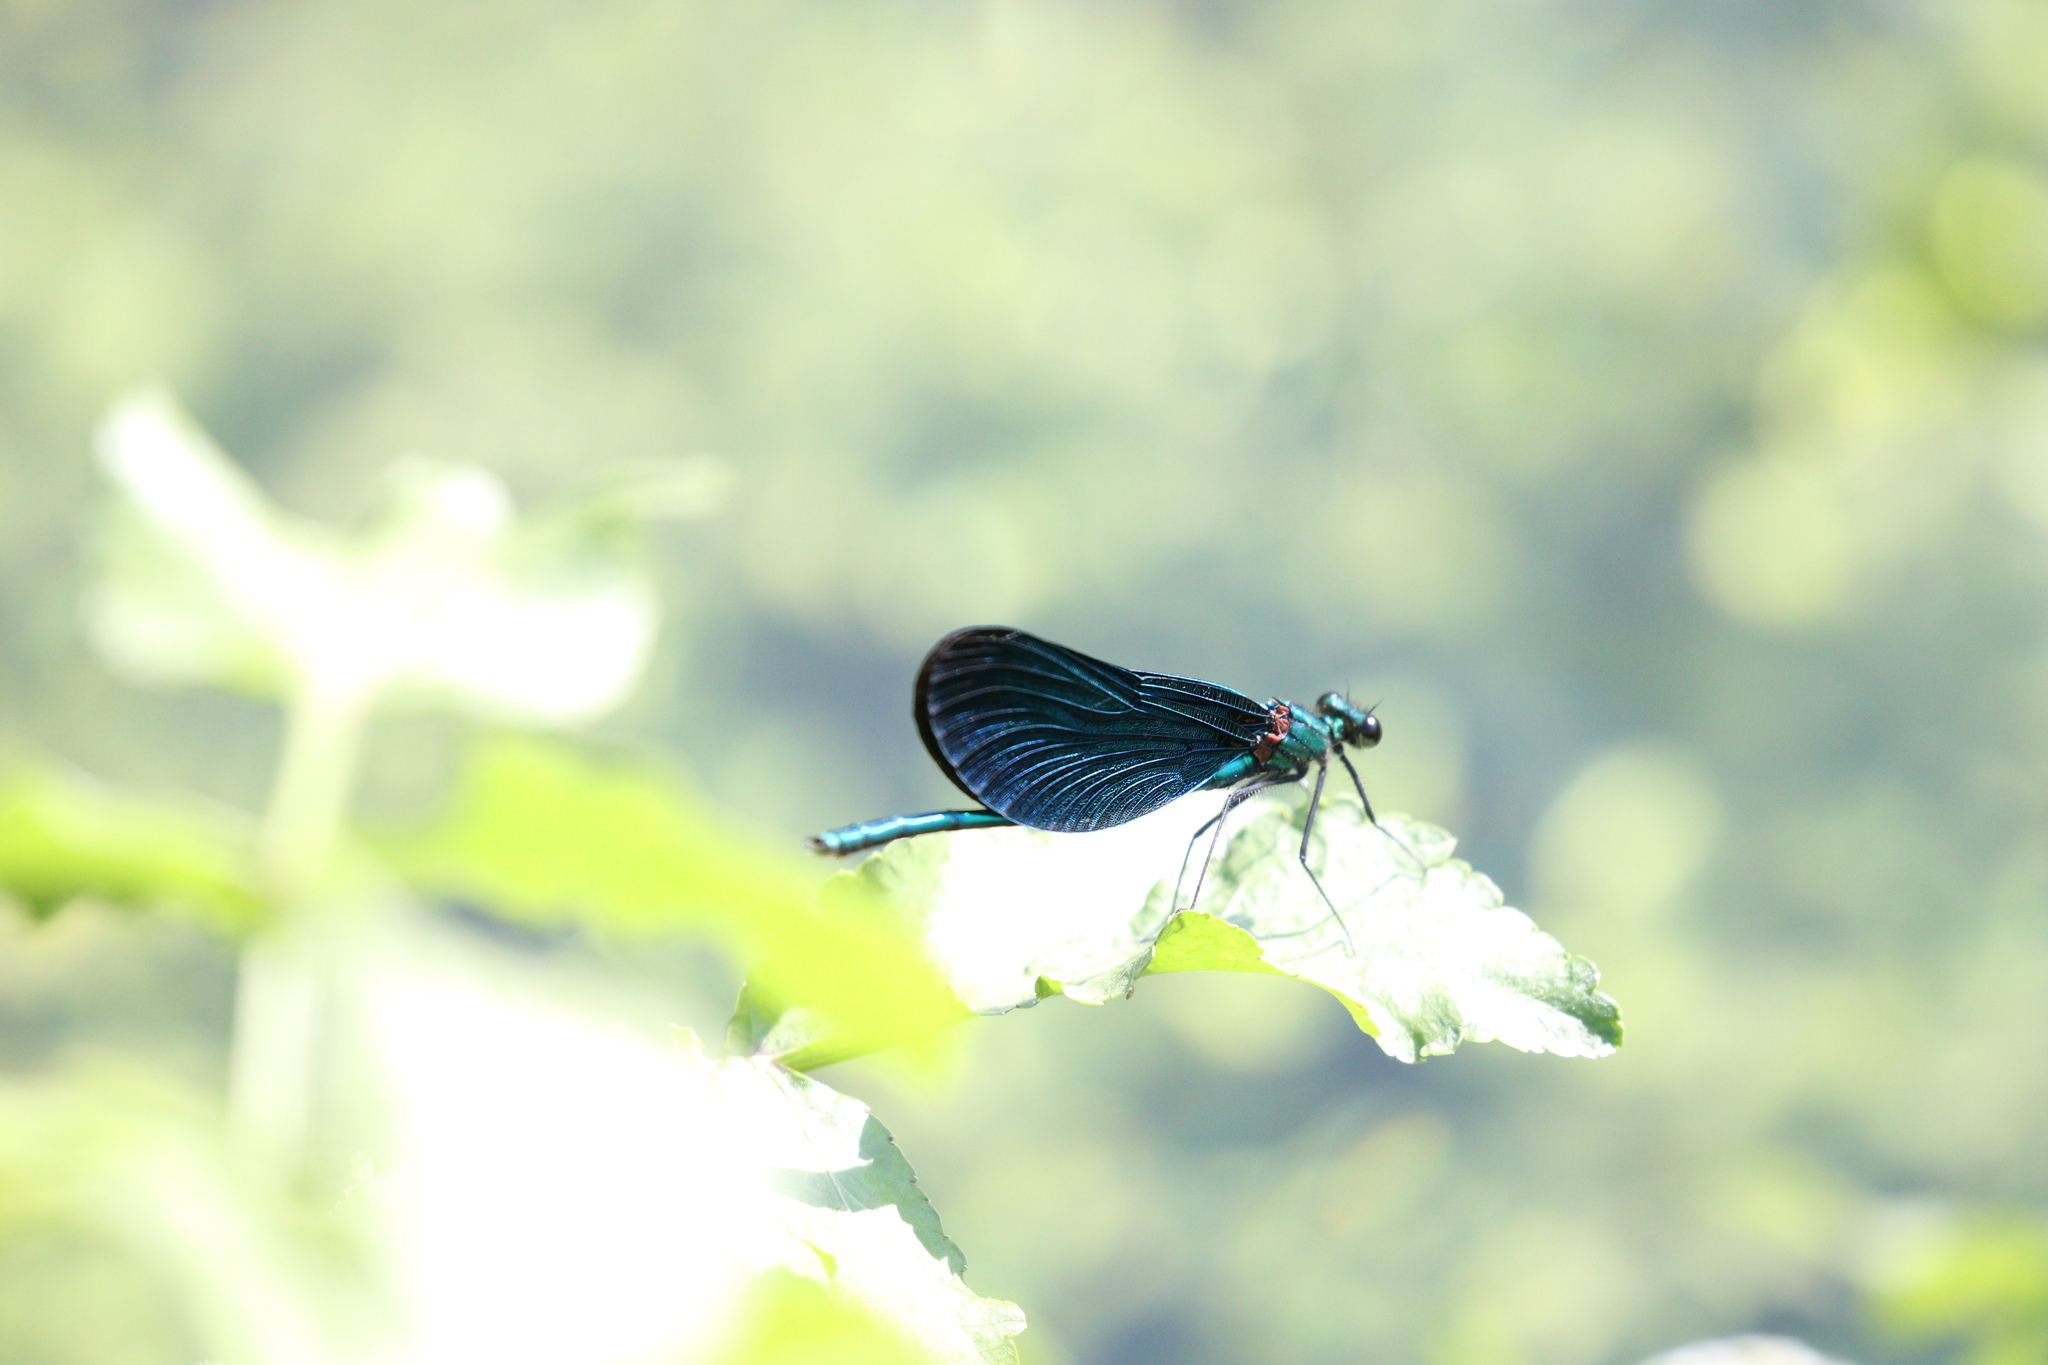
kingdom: Animalia
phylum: Arthropoda
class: Insecta
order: Odonata
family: Calopterygidae
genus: Calopteryx
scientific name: Calopteryx virgo
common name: Beautiful demoiselle
